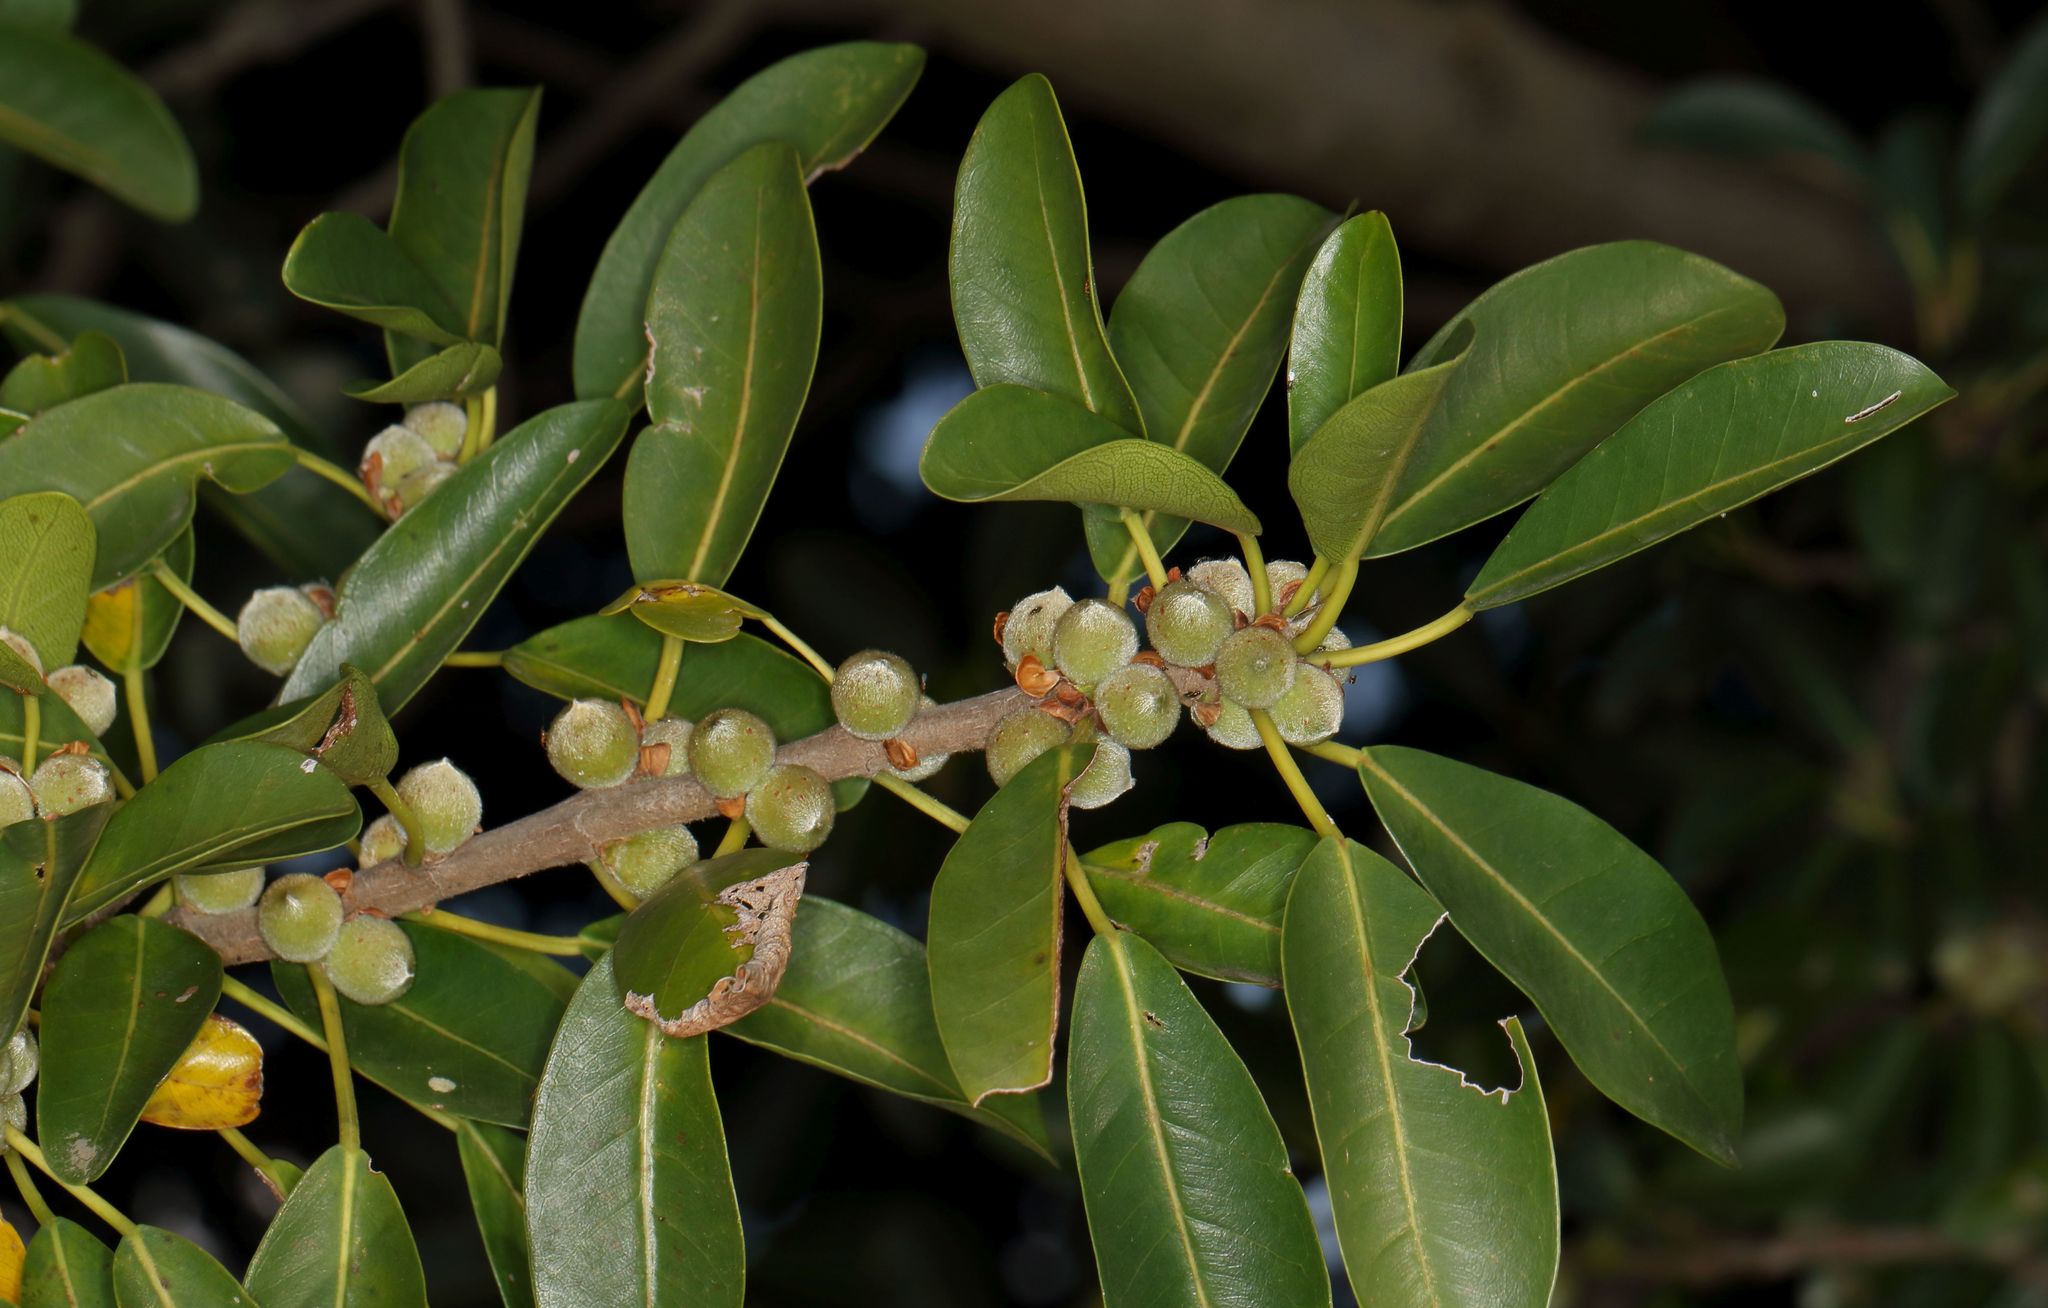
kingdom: Plantae
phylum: Tracheophyta
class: Magnoliopsida
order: Rosales
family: Moraceae
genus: Ficus
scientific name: Ficus thonningii
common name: Fig
